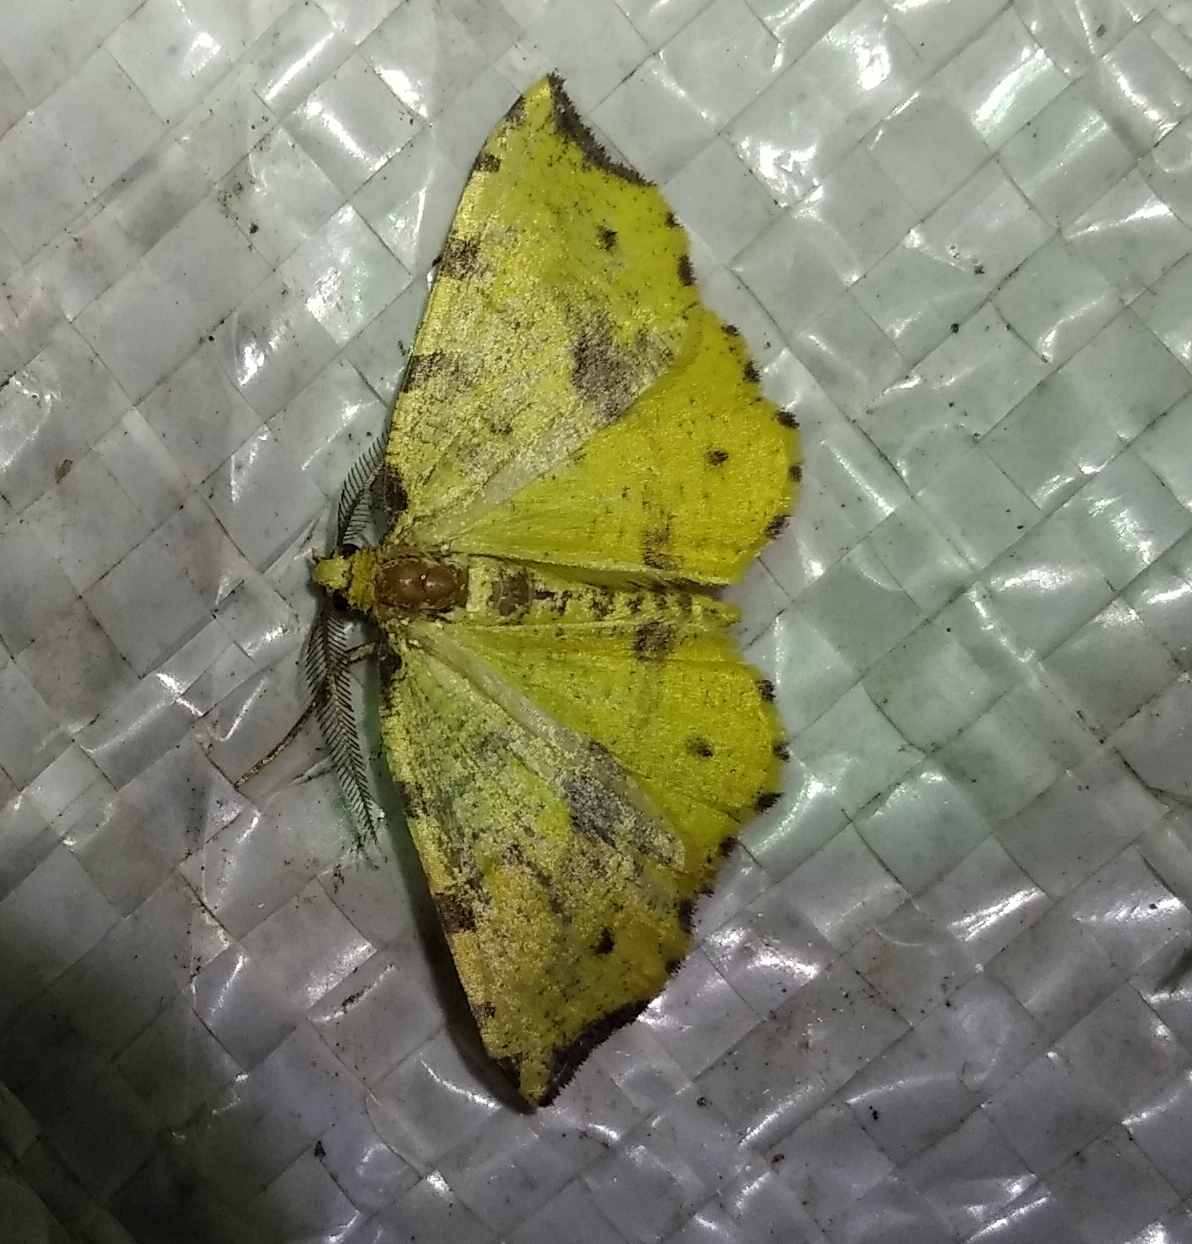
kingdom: Animalia
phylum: Arthropoda
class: Insecta
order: Lepidoptera
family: Geometridae
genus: Therapis
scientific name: Therapis flavicaria
